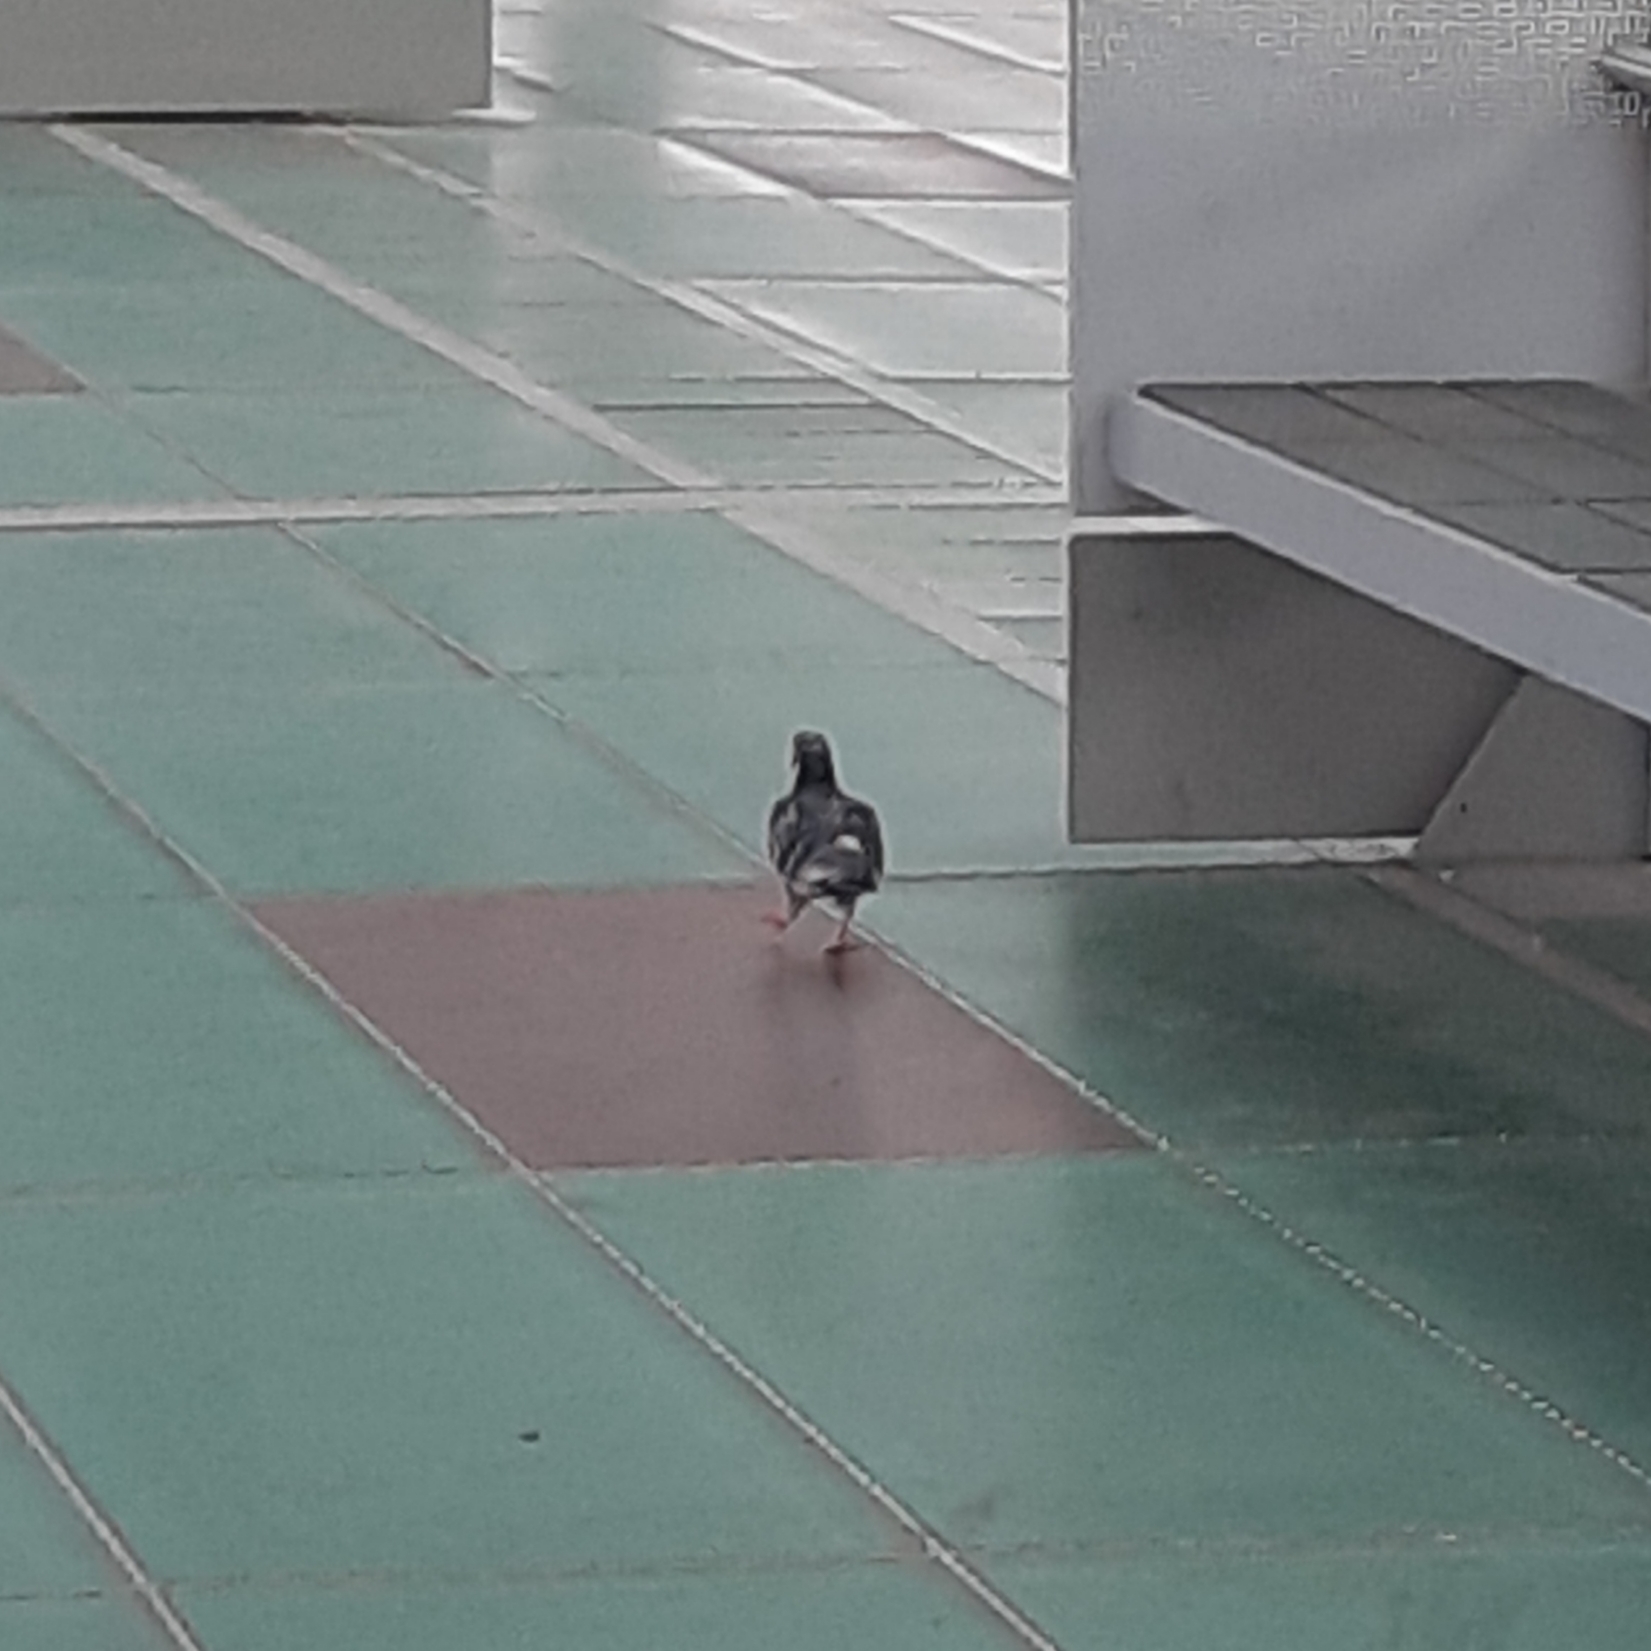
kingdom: Animalia
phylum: Chordata
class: Aves
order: Columbiformes
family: Columbidae
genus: Columba
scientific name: Columba livia
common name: Rock pigeon
